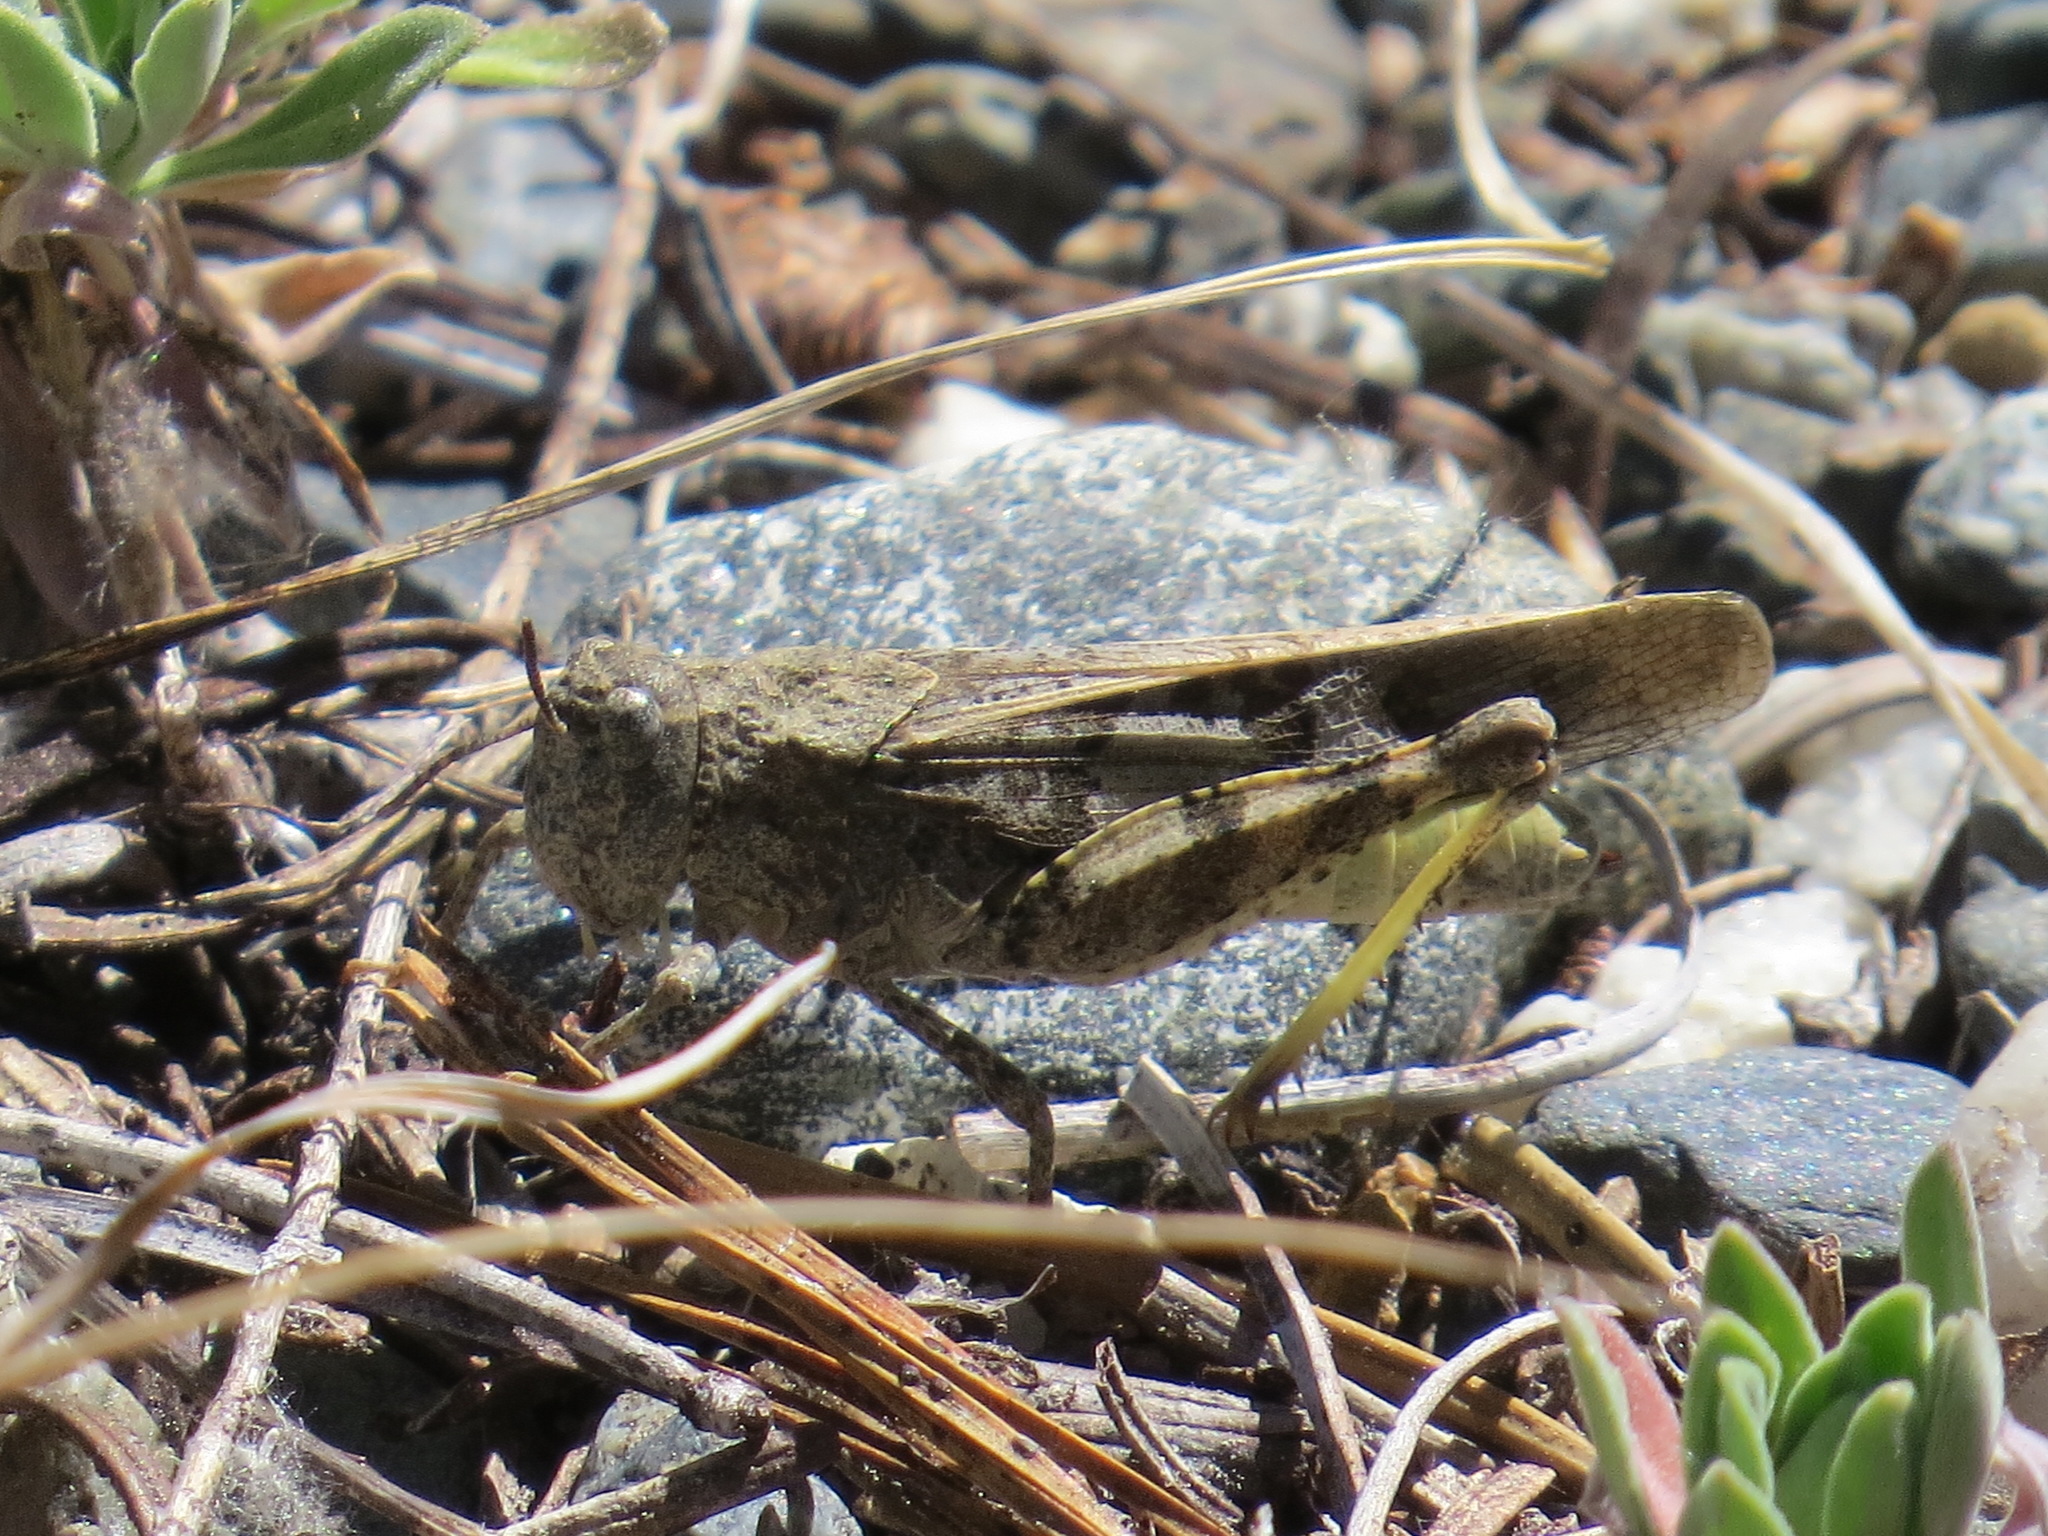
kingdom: Animalia
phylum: Arthropoda
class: Insecta
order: Orthoptera
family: Acrididae
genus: Cratypedes
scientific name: Cratypedes neglectus
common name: Pronotal range grasshopper
